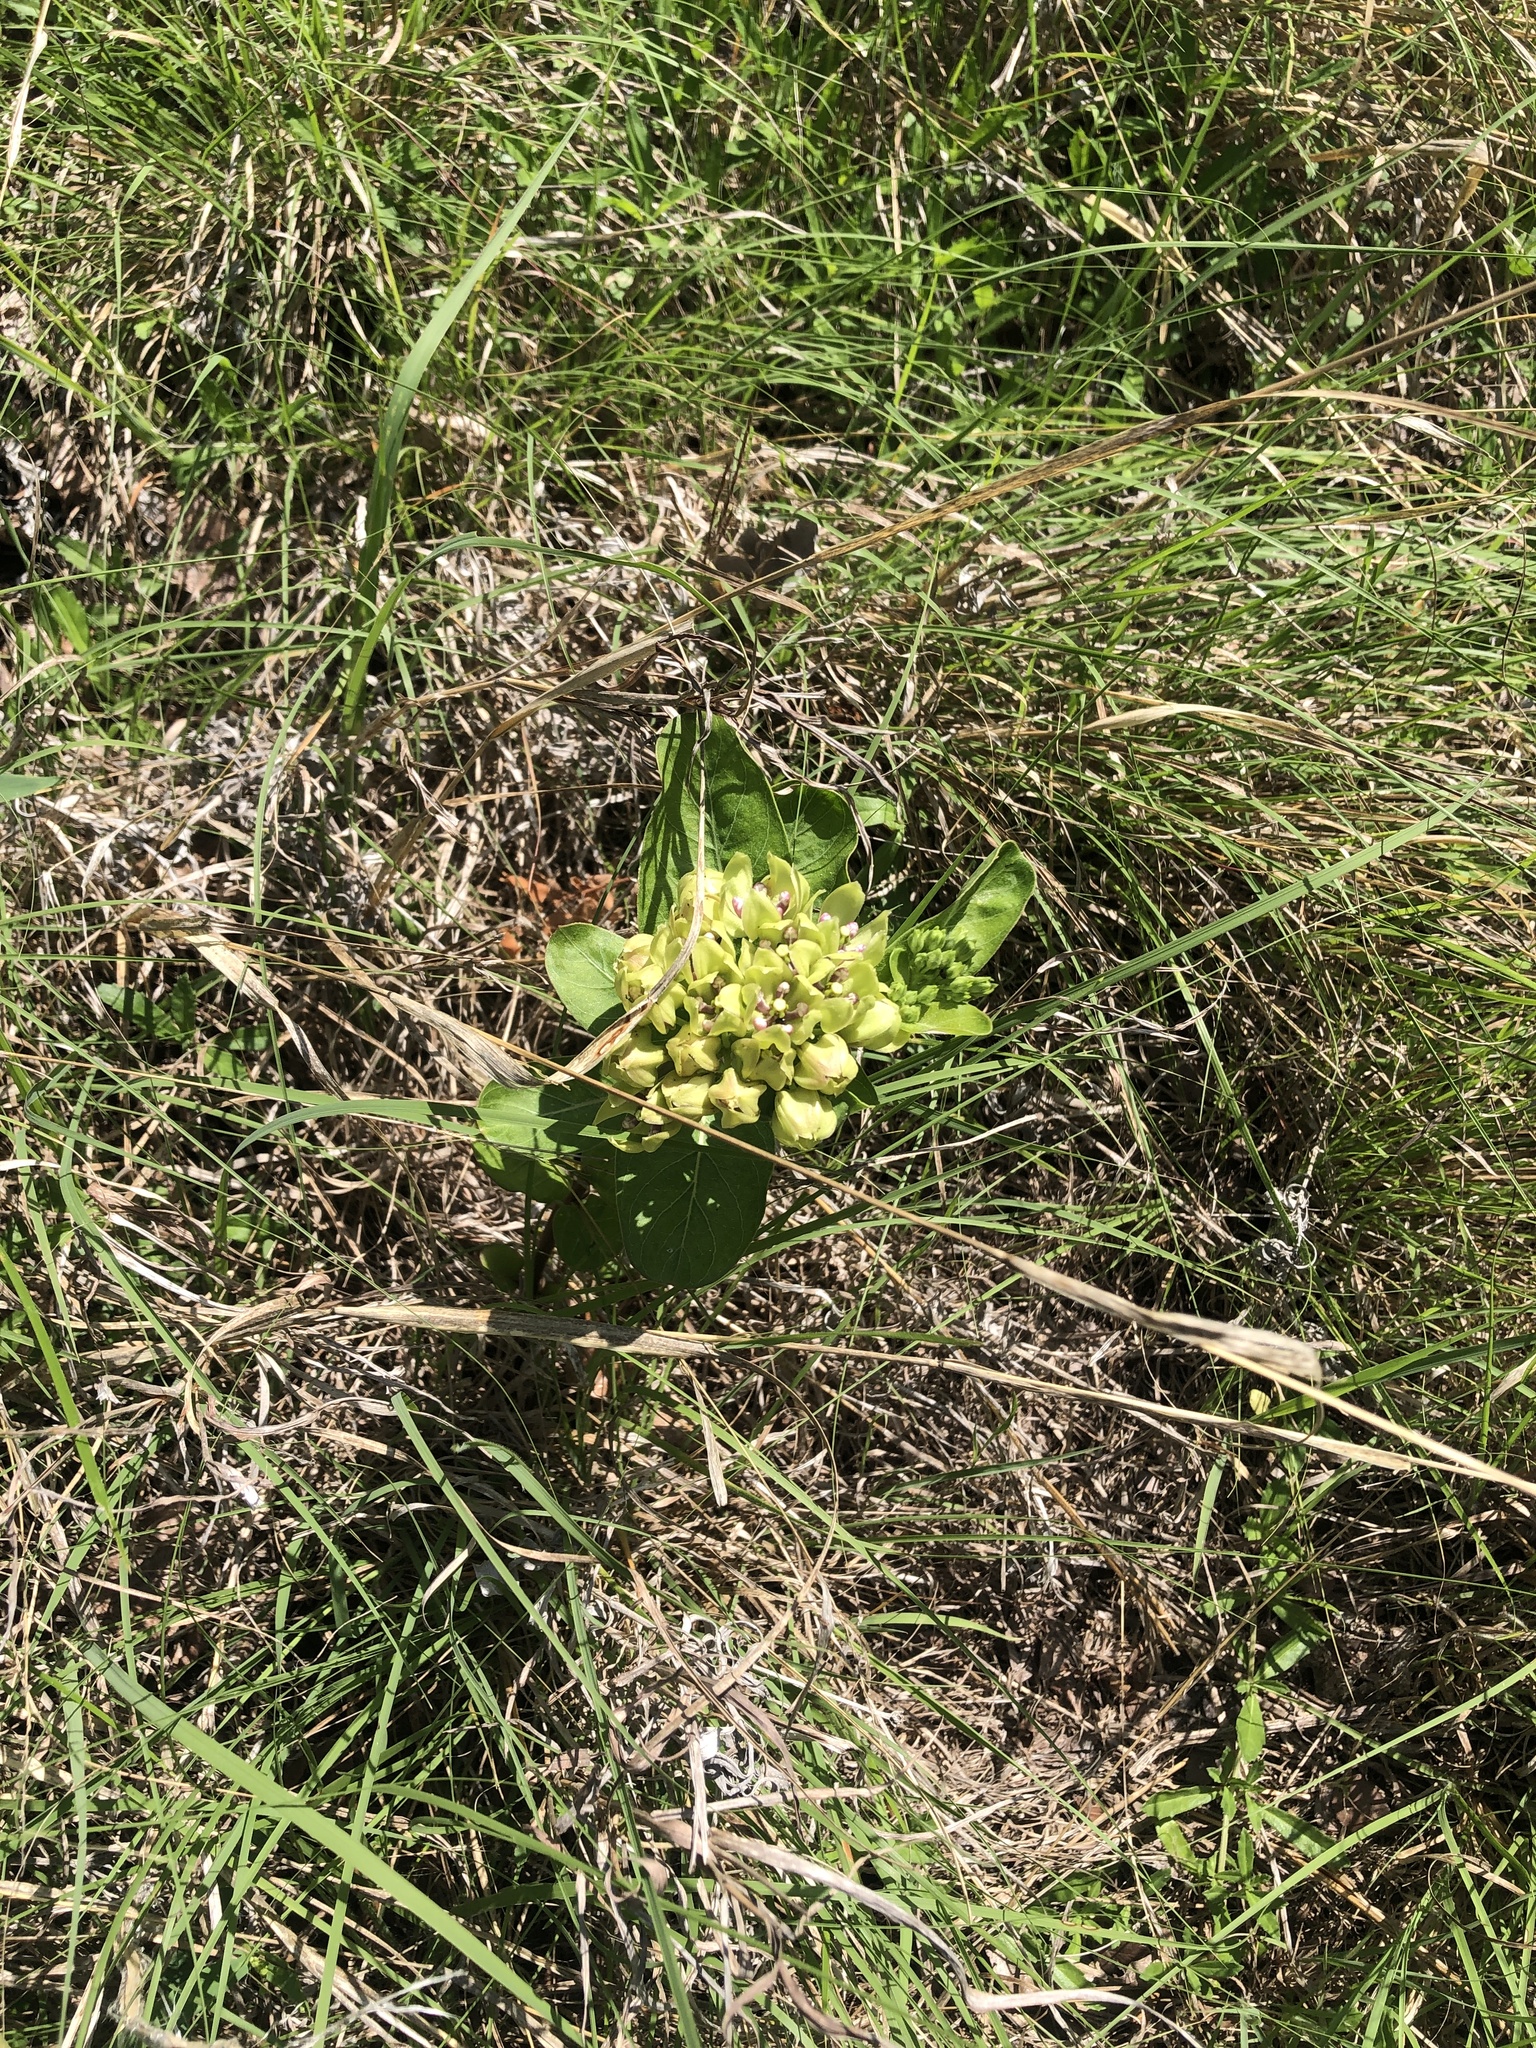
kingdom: Plantae
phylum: Tracheophyta
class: Magnoliopsida
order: Gentianales
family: Apocynaceae
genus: Asclepias
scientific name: Asclepias viridis
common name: Antelope-horns
